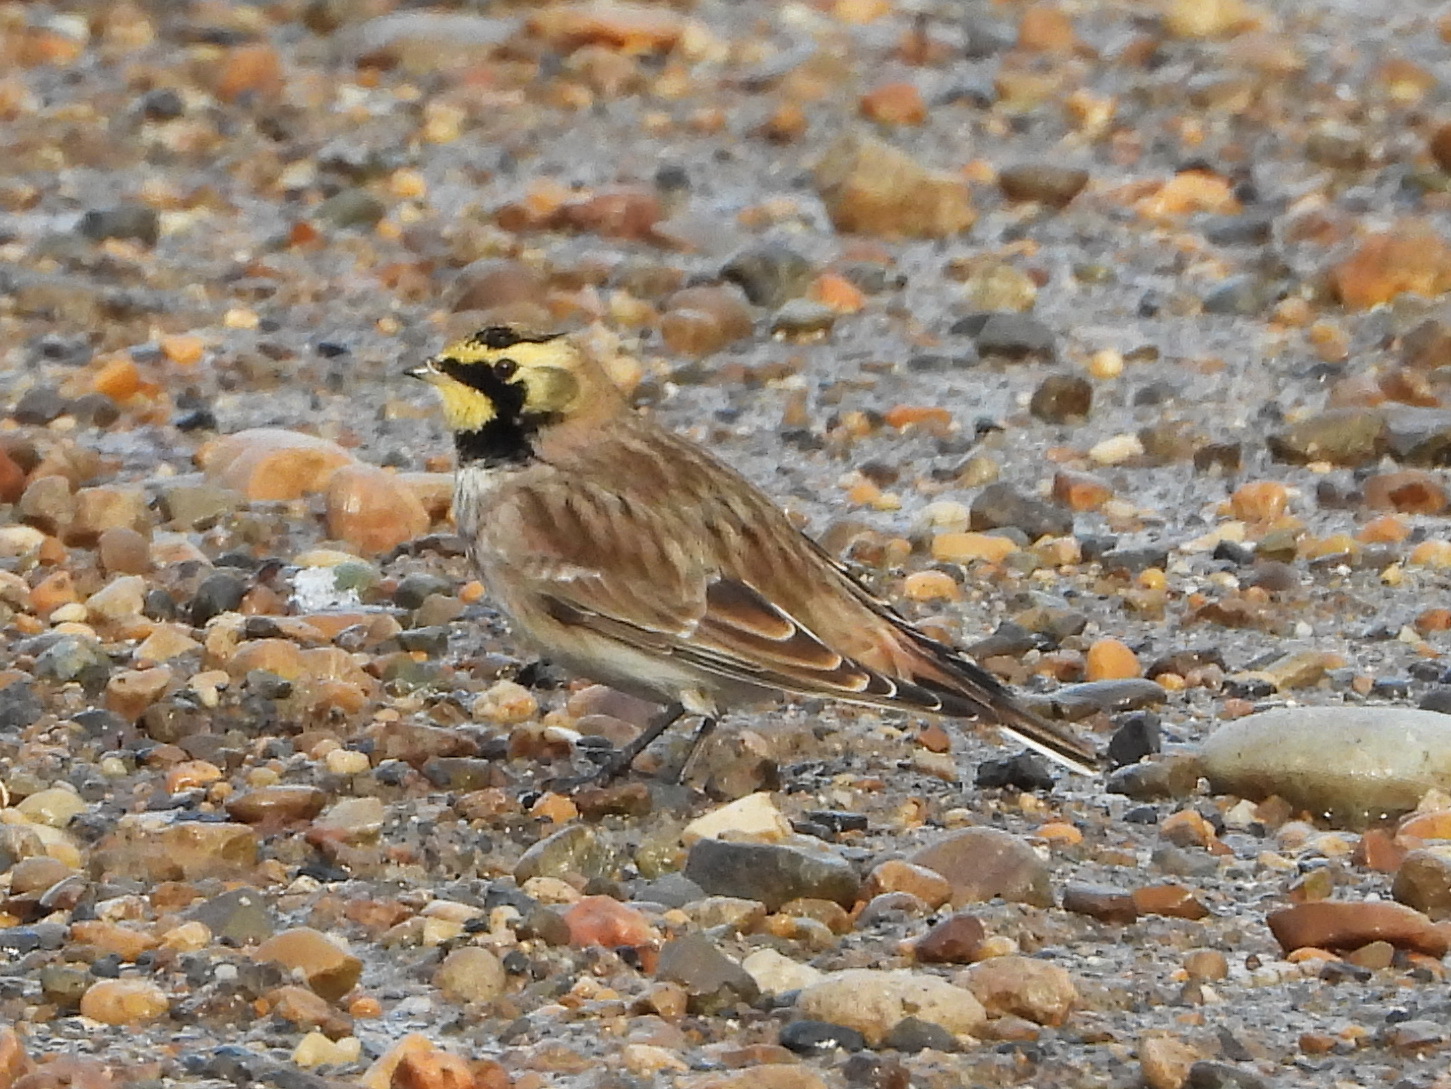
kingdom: Animalia
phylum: Chordata
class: Aves
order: Passeriformes
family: Alaudidae
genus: Eremophila
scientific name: Eremophila alpestris
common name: Horned lark
